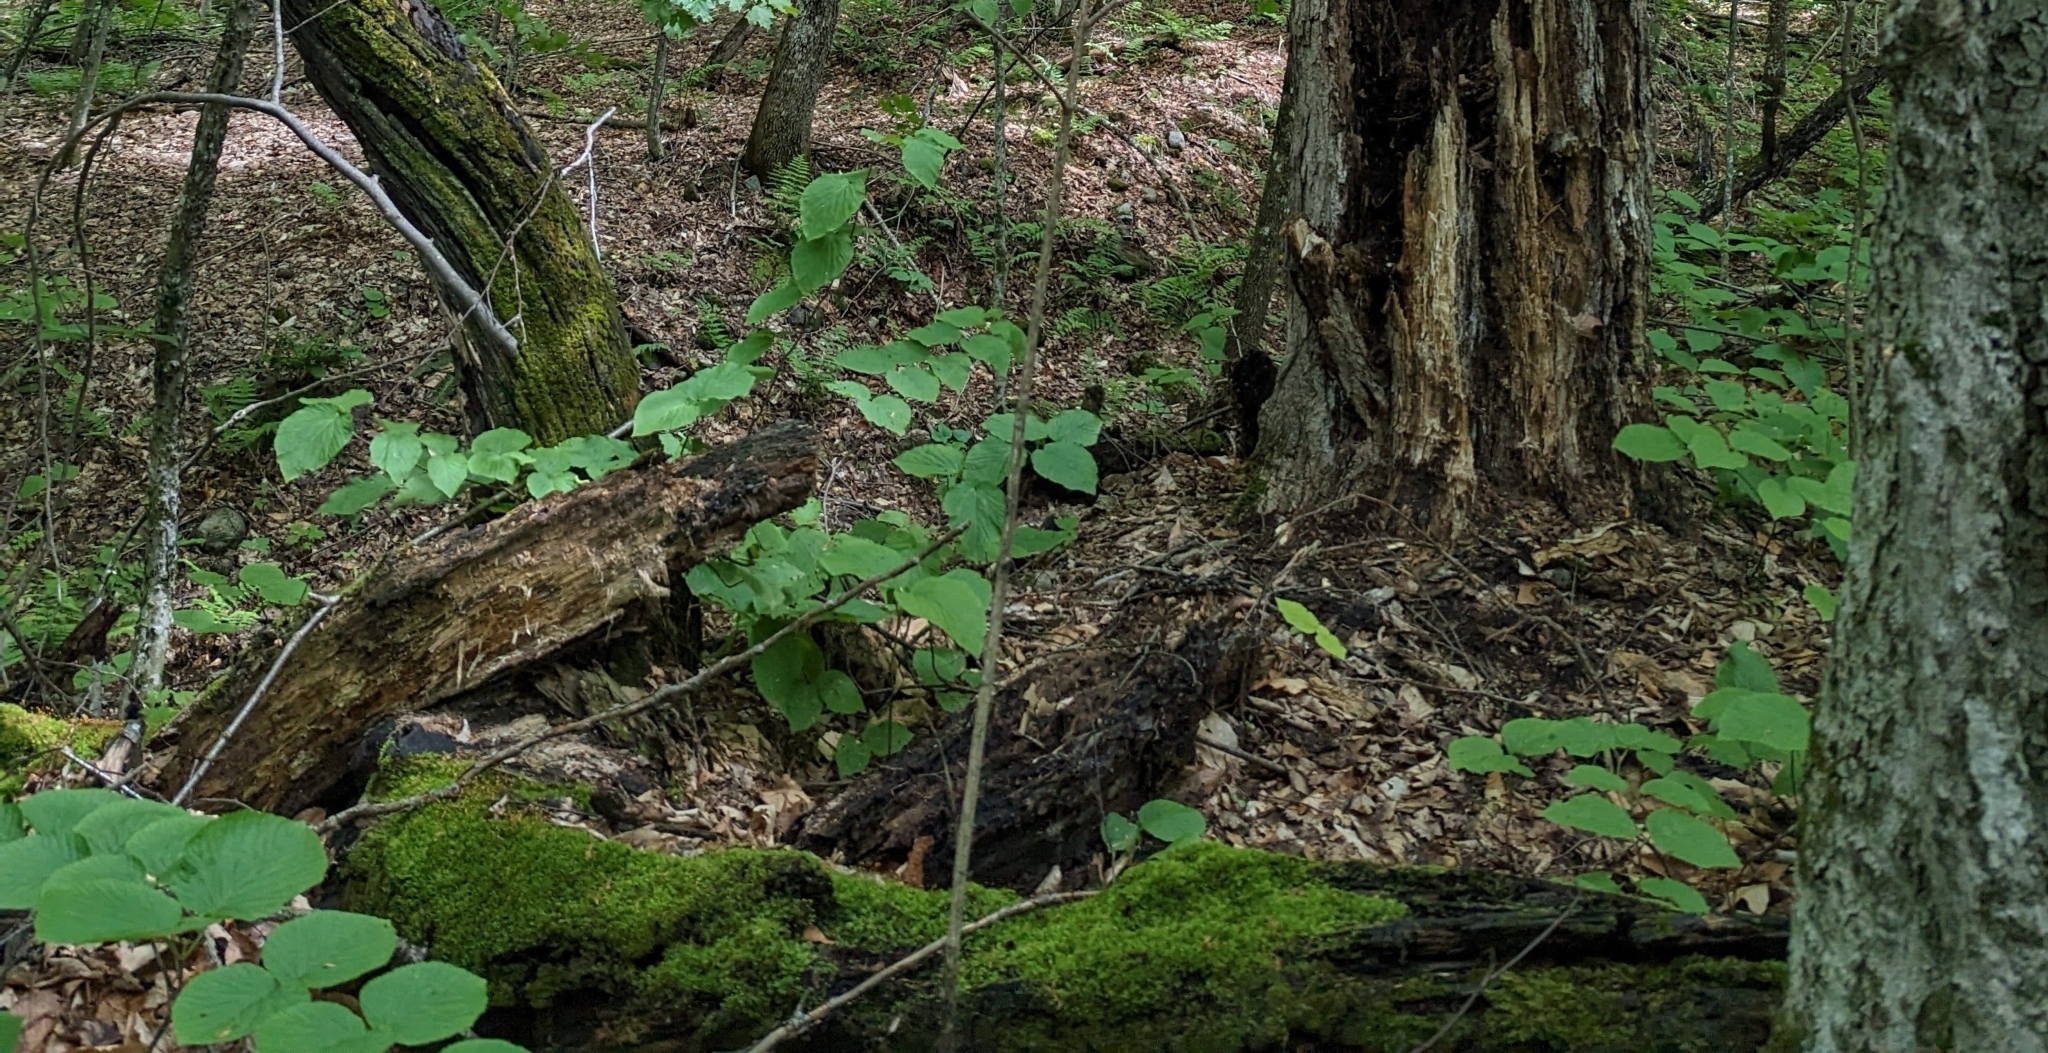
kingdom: Plantae
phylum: Tracheophyta
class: Magnoliopsida
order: Dipsacales
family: Viburnaceae
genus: Viburnum
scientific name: Viburnum lantanoides
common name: Hobblebush
